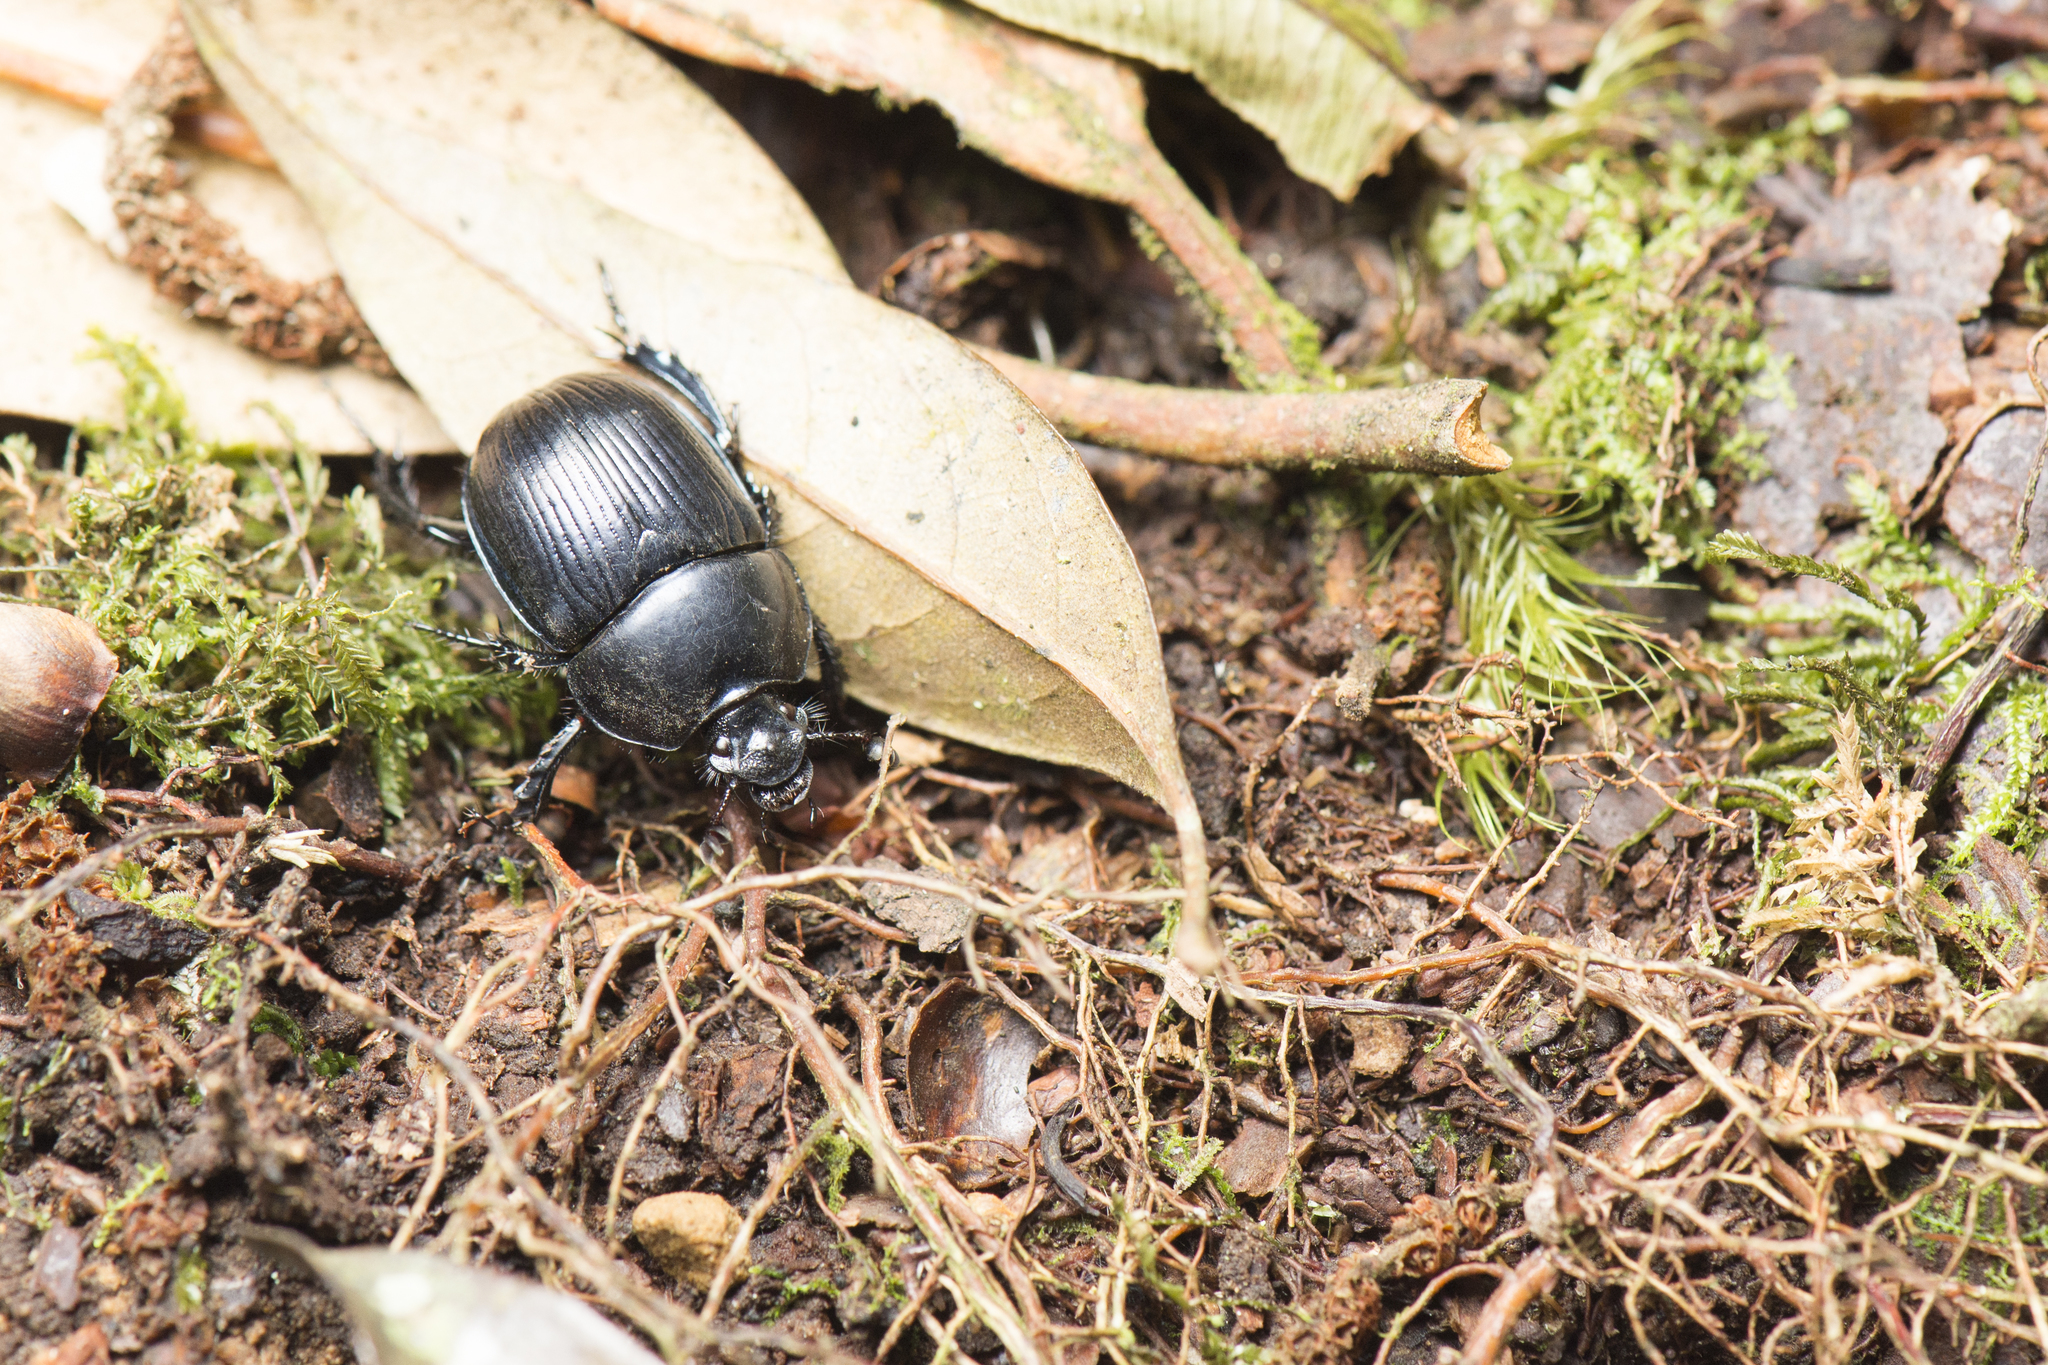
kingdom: Animalia
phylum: Arthropoda
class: Insecta
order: Coleoptera
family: Geotrupidae
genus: Phelotrupes
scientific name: Phelotrupes insulanus
